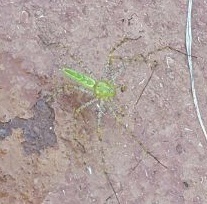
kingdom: Animalia
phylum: Arthropoda
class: Arachnida
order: Araneae
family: Oxyopidae
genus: Peucetia
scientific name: Peucetia viridans
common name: Lynx spiders
